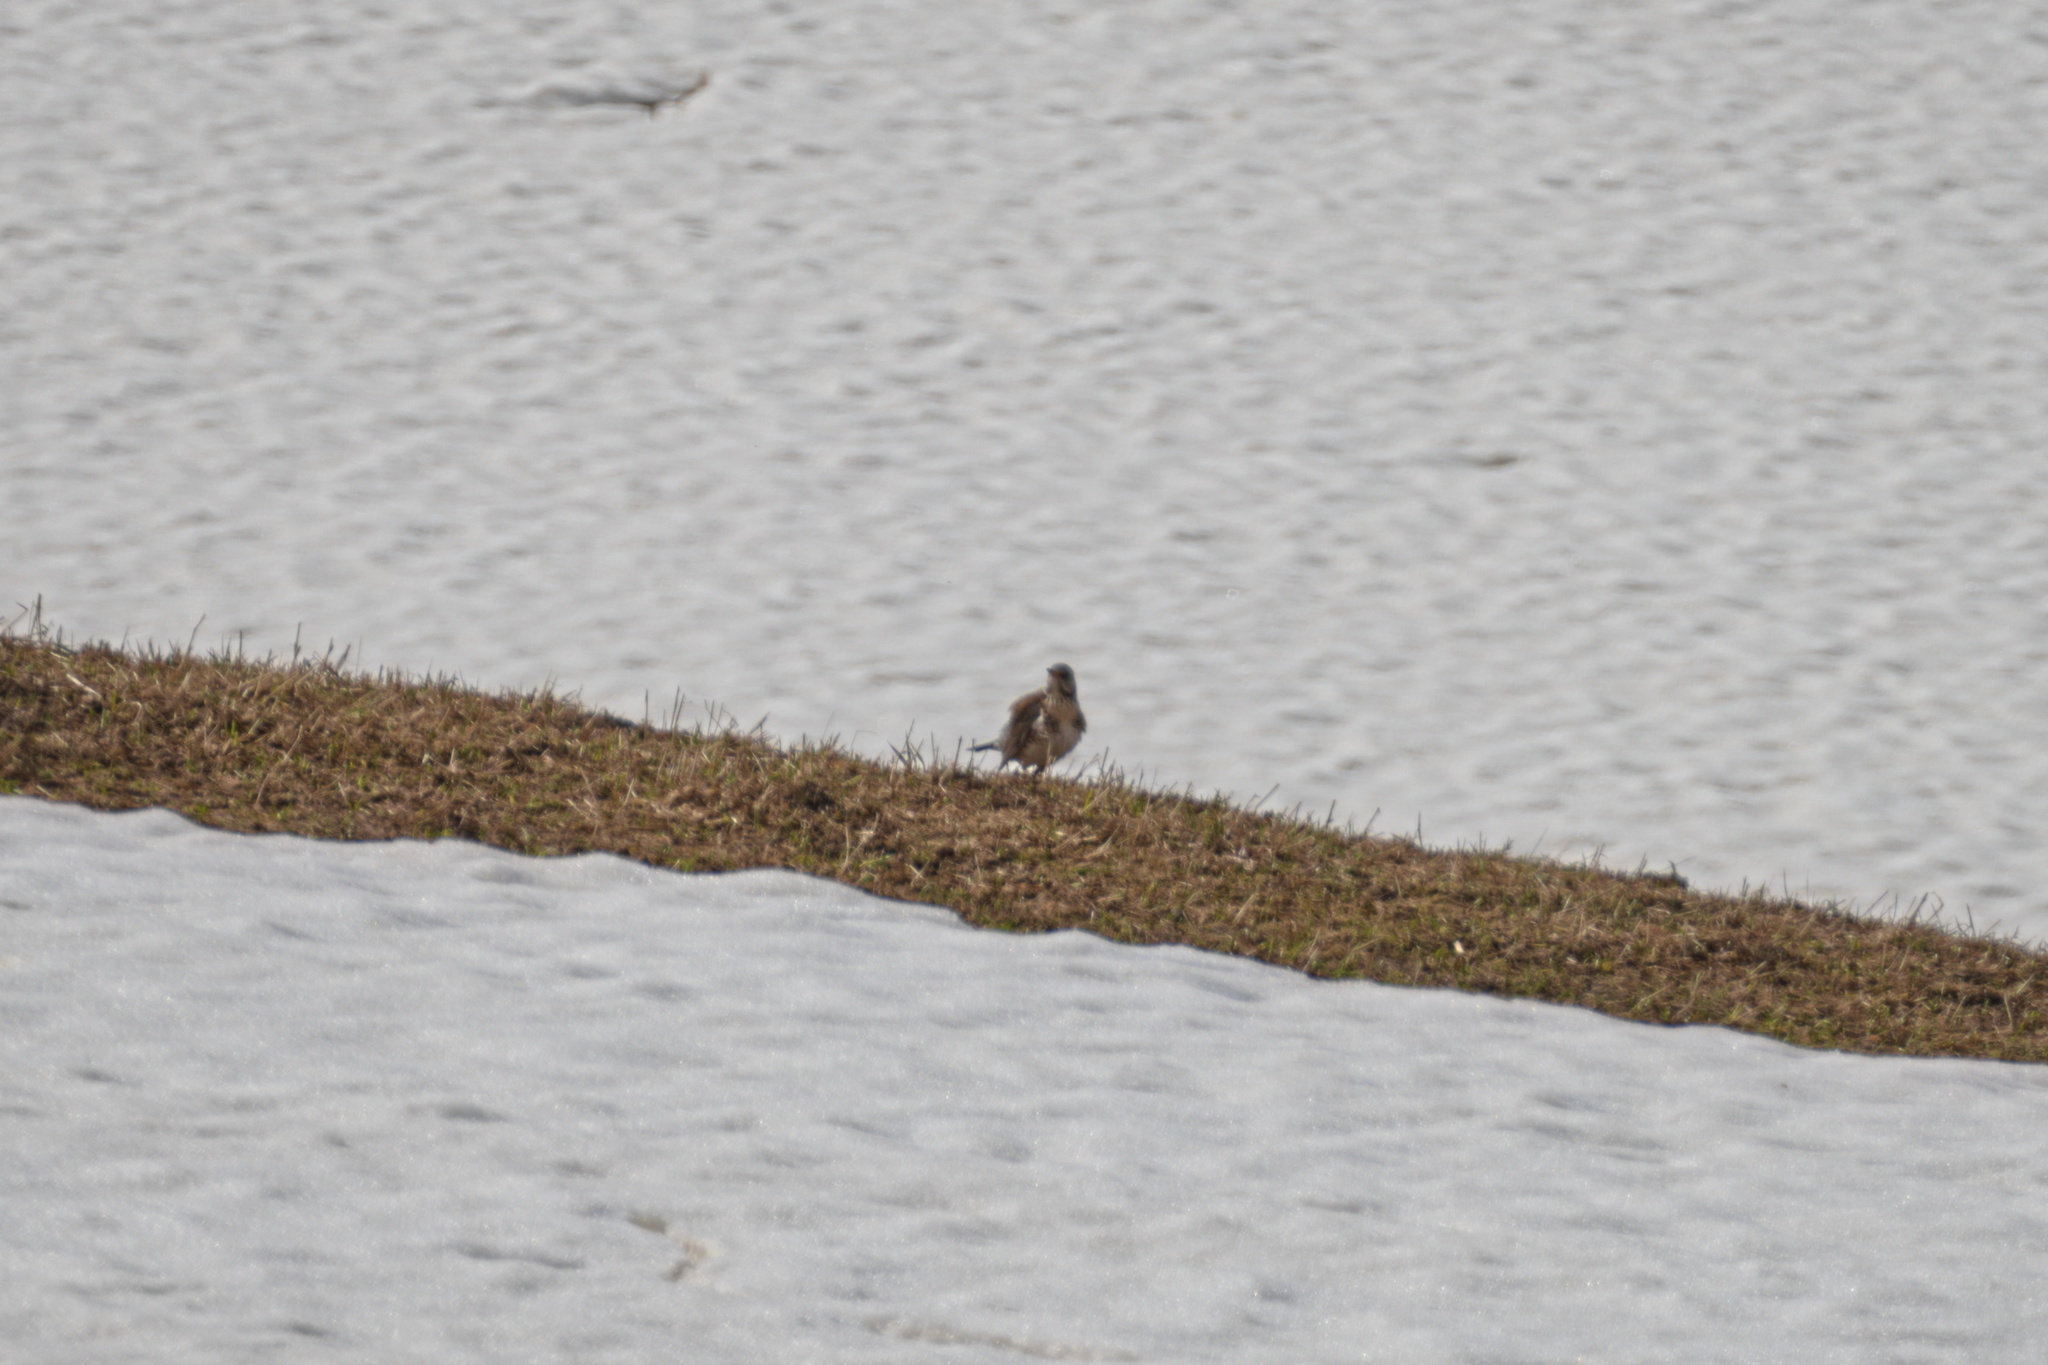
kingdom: Animalia
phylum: Chordata
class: Aves
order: Passeriformes
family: Turdidae
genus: Turdus
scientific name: Turdus pilaris
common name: Fieldfare
